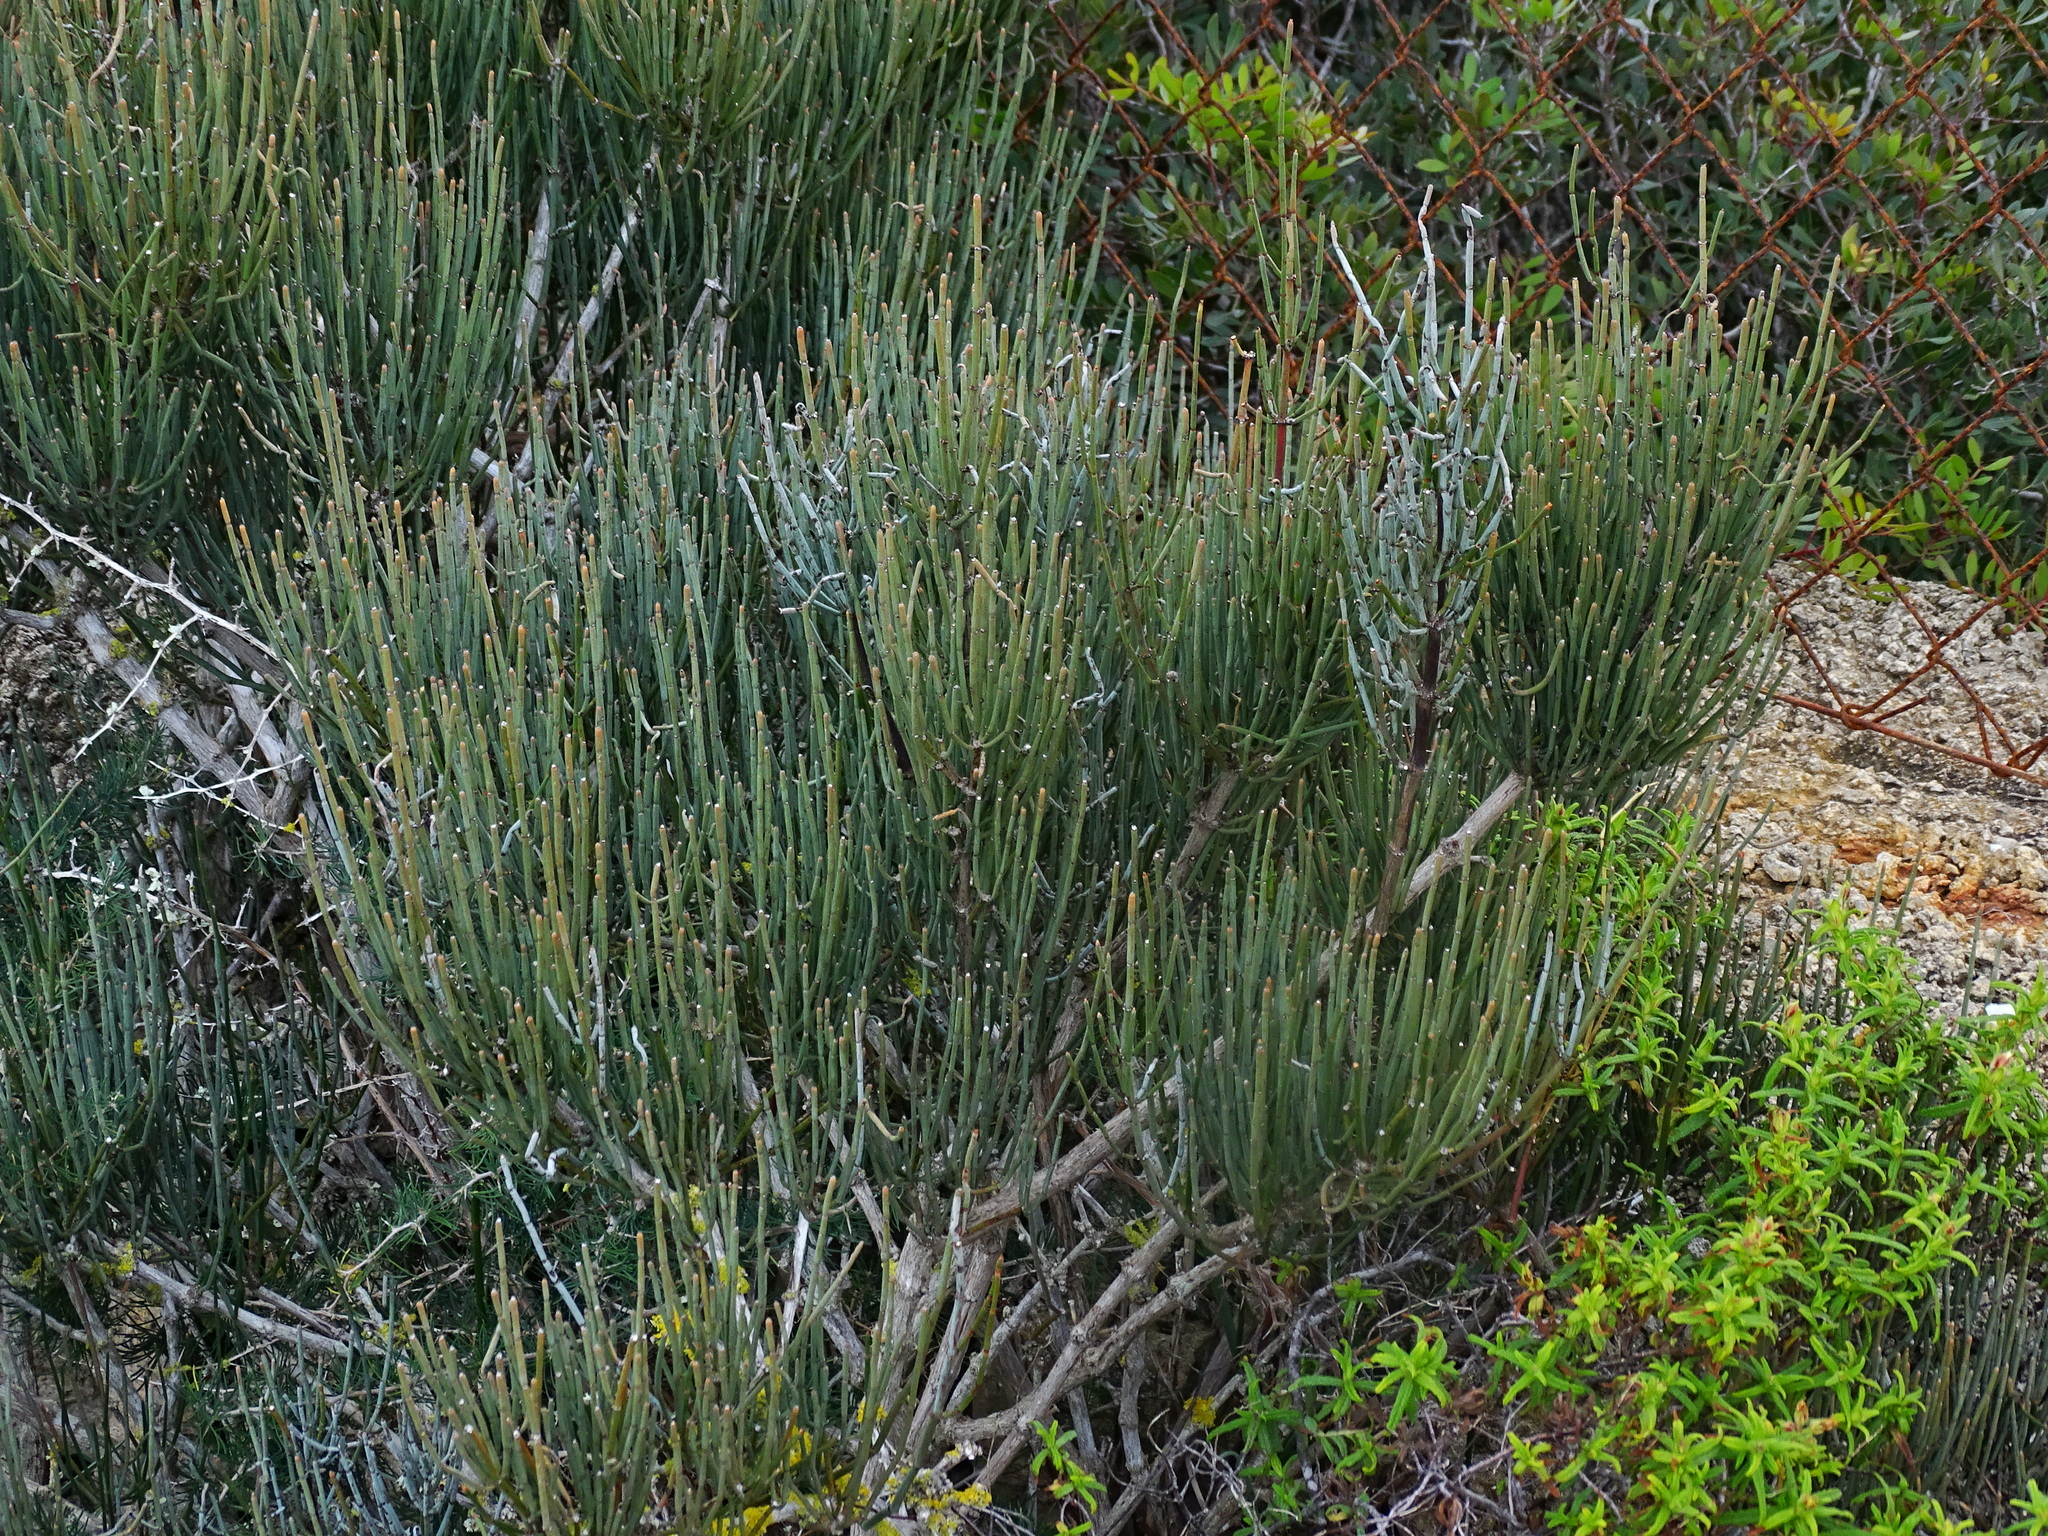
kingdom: Plantae
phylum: Tracheophyta
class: Gnetopsida
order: Ephedrales
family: Ephedraceae
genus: Ephedra
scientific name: Ephedra fragilis
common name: Joint pine
